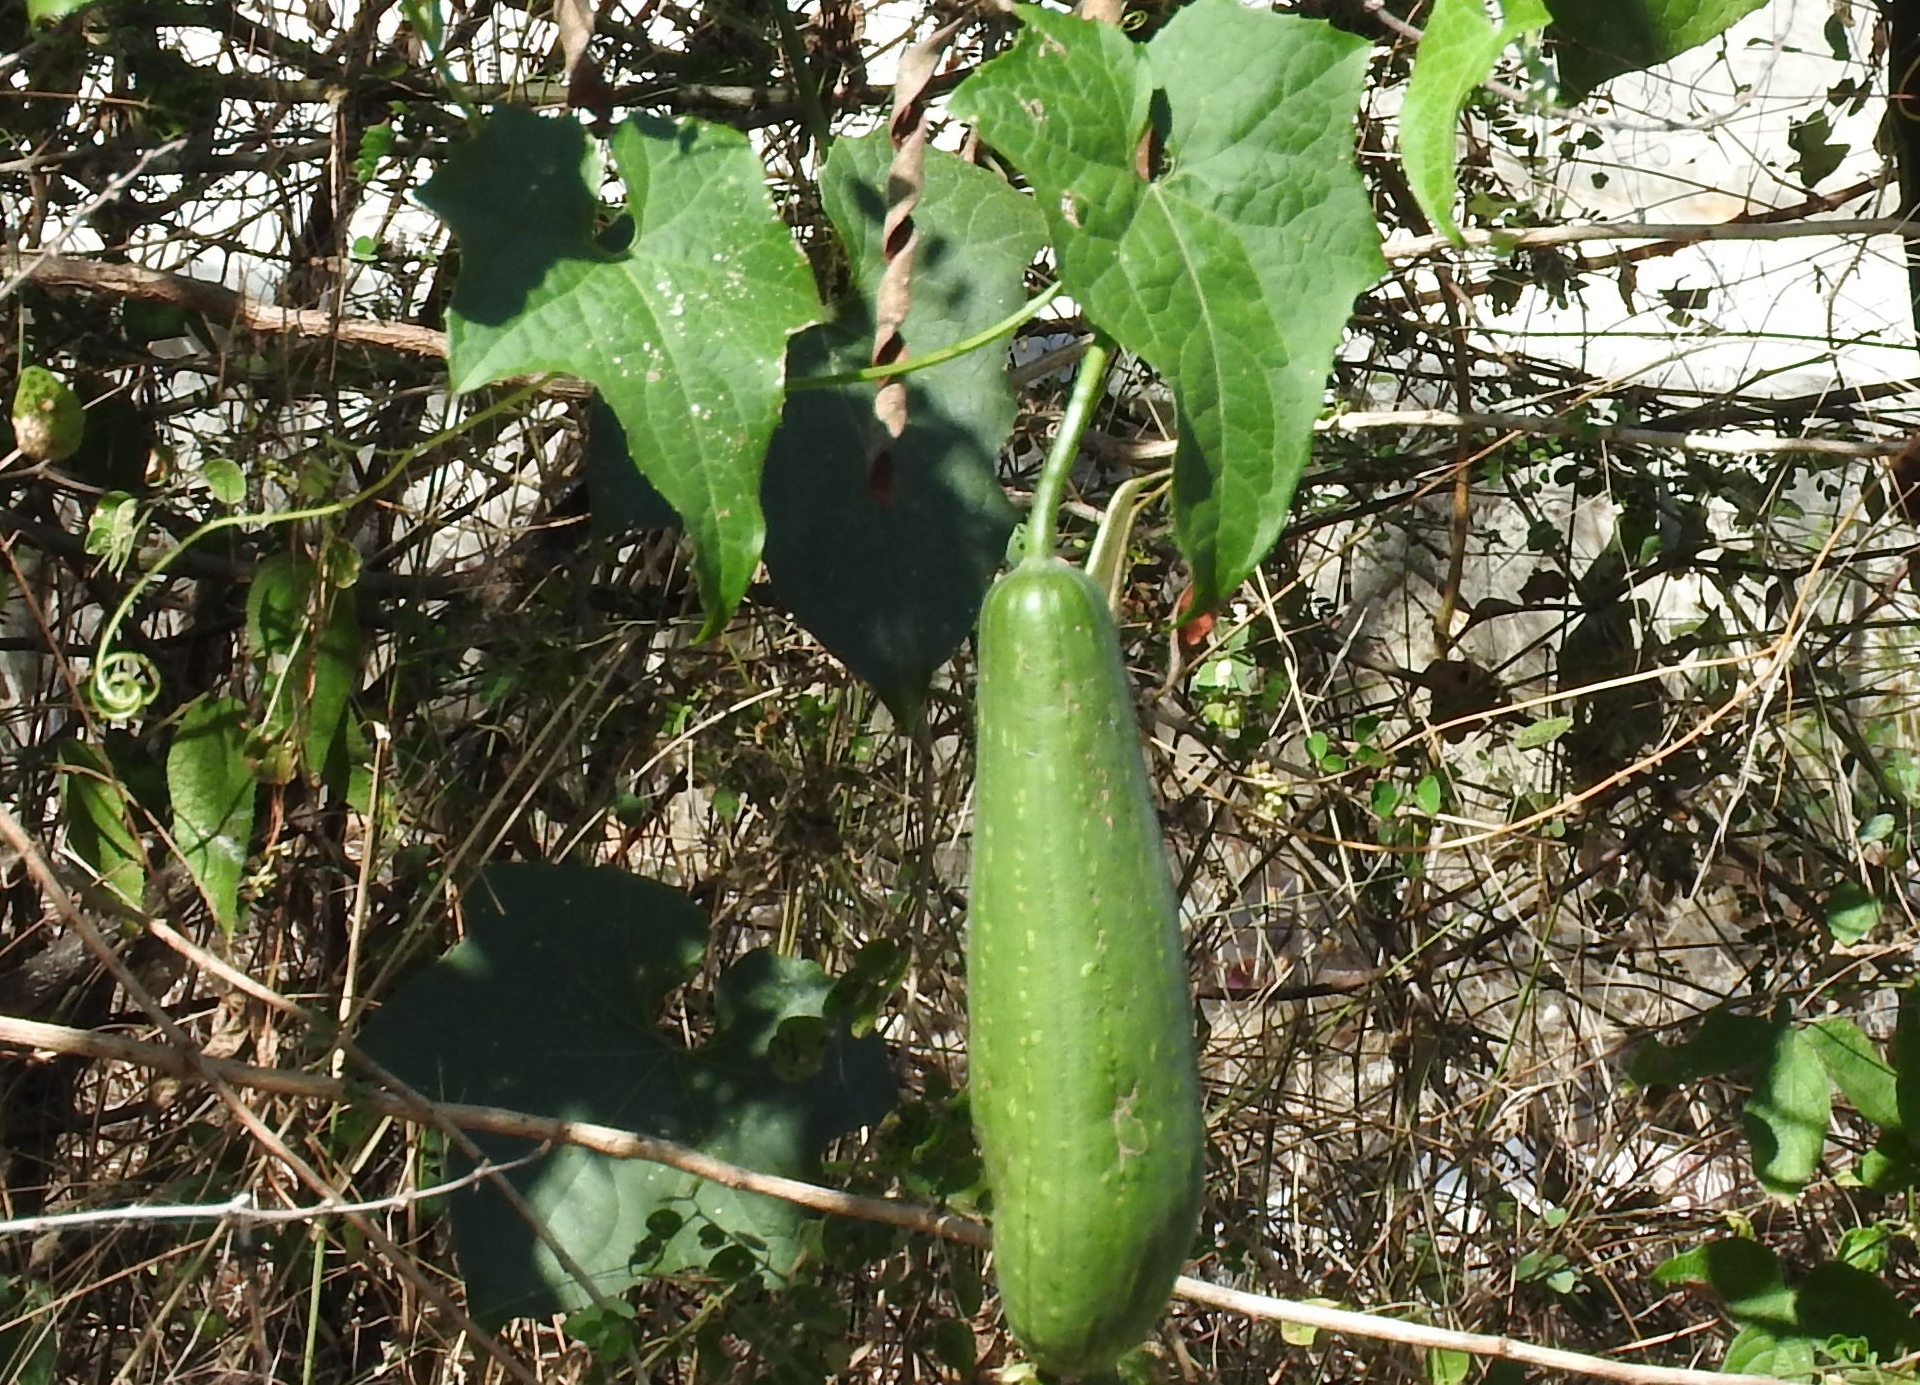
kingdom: Plantae
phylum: Tracheophyta
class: Magnoliopsida
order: Cucurbitales
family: Cucurbitaceae
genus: Luffa
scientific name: Luffa aegyptiaca
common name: Sponge gourd
